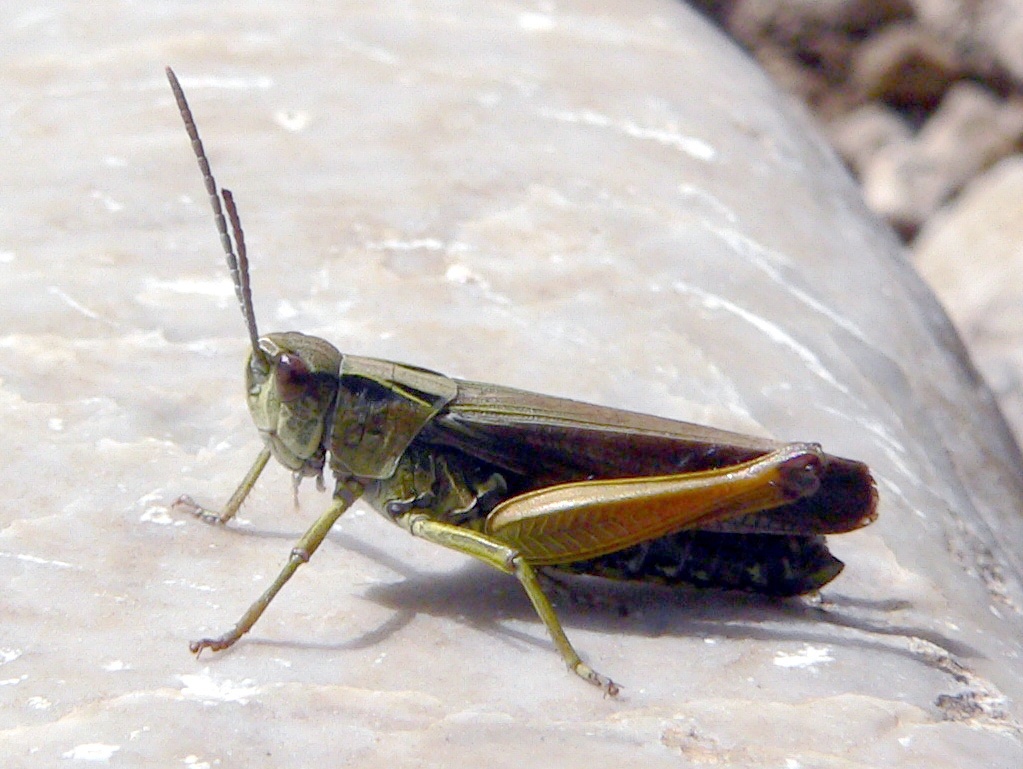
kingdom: Animalia
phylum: Arthropoda
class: Insecta
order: Orthoptera
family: Acrididae
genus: Omocestus
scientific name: Omocestus viridulus
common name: Common green grasshopper
